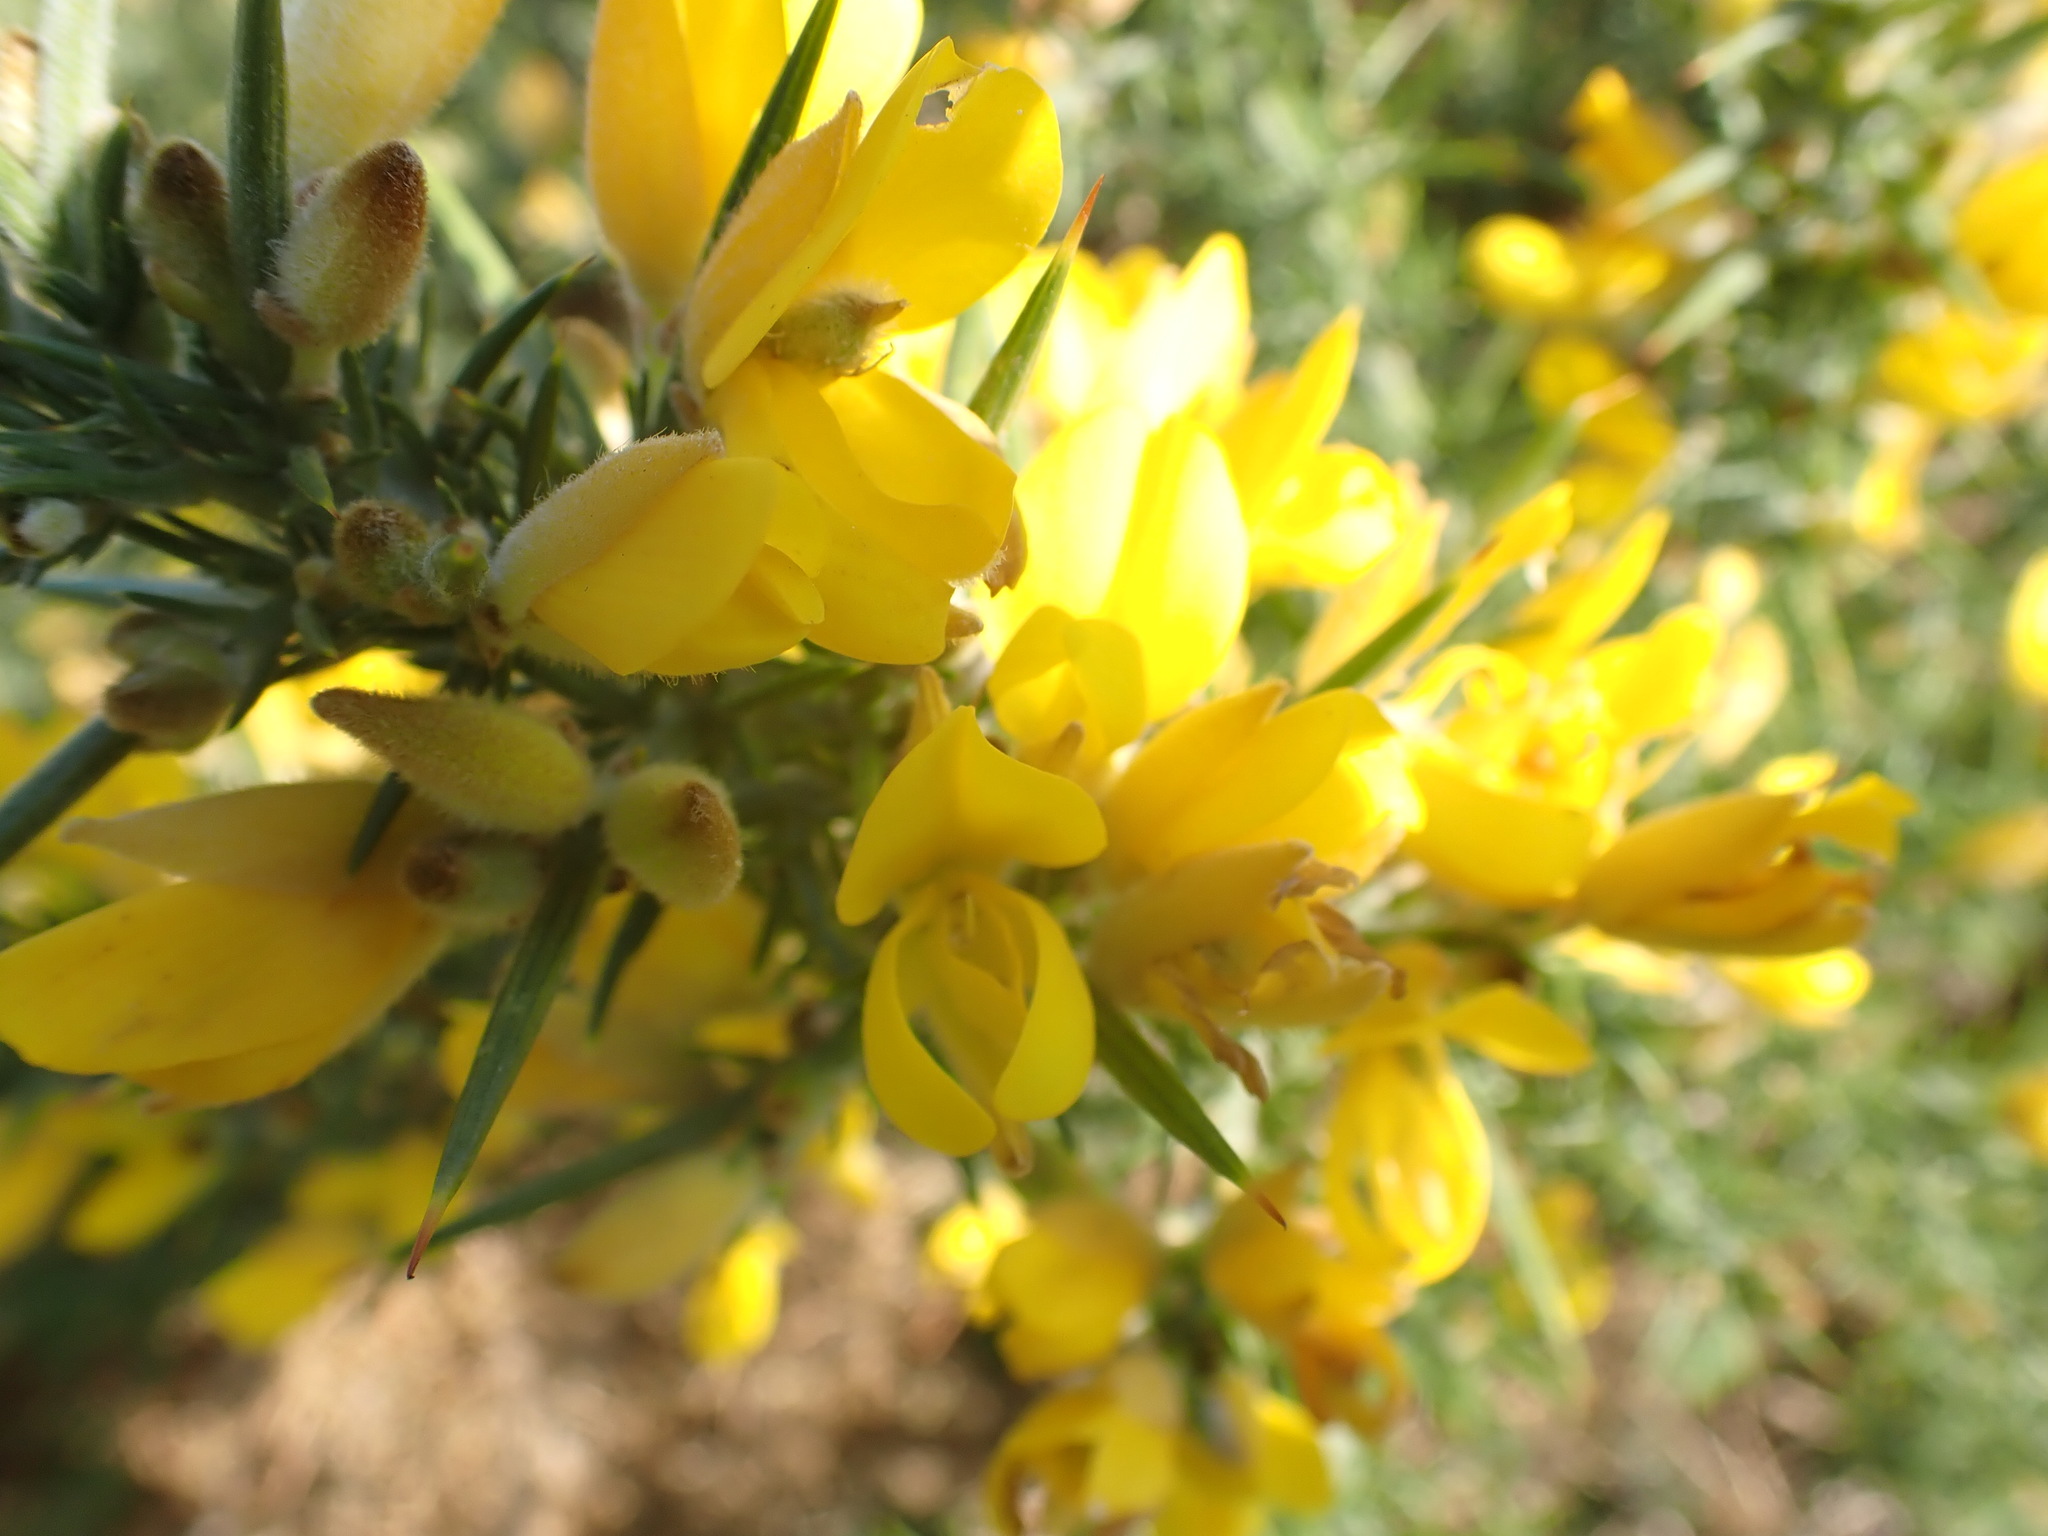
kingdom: Plantae
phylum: Tracheophyta
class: Magnoliopsida
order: Fabales
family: Fabaceae
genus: Ulex
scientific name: Ulex europaeus
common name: Common gorse
